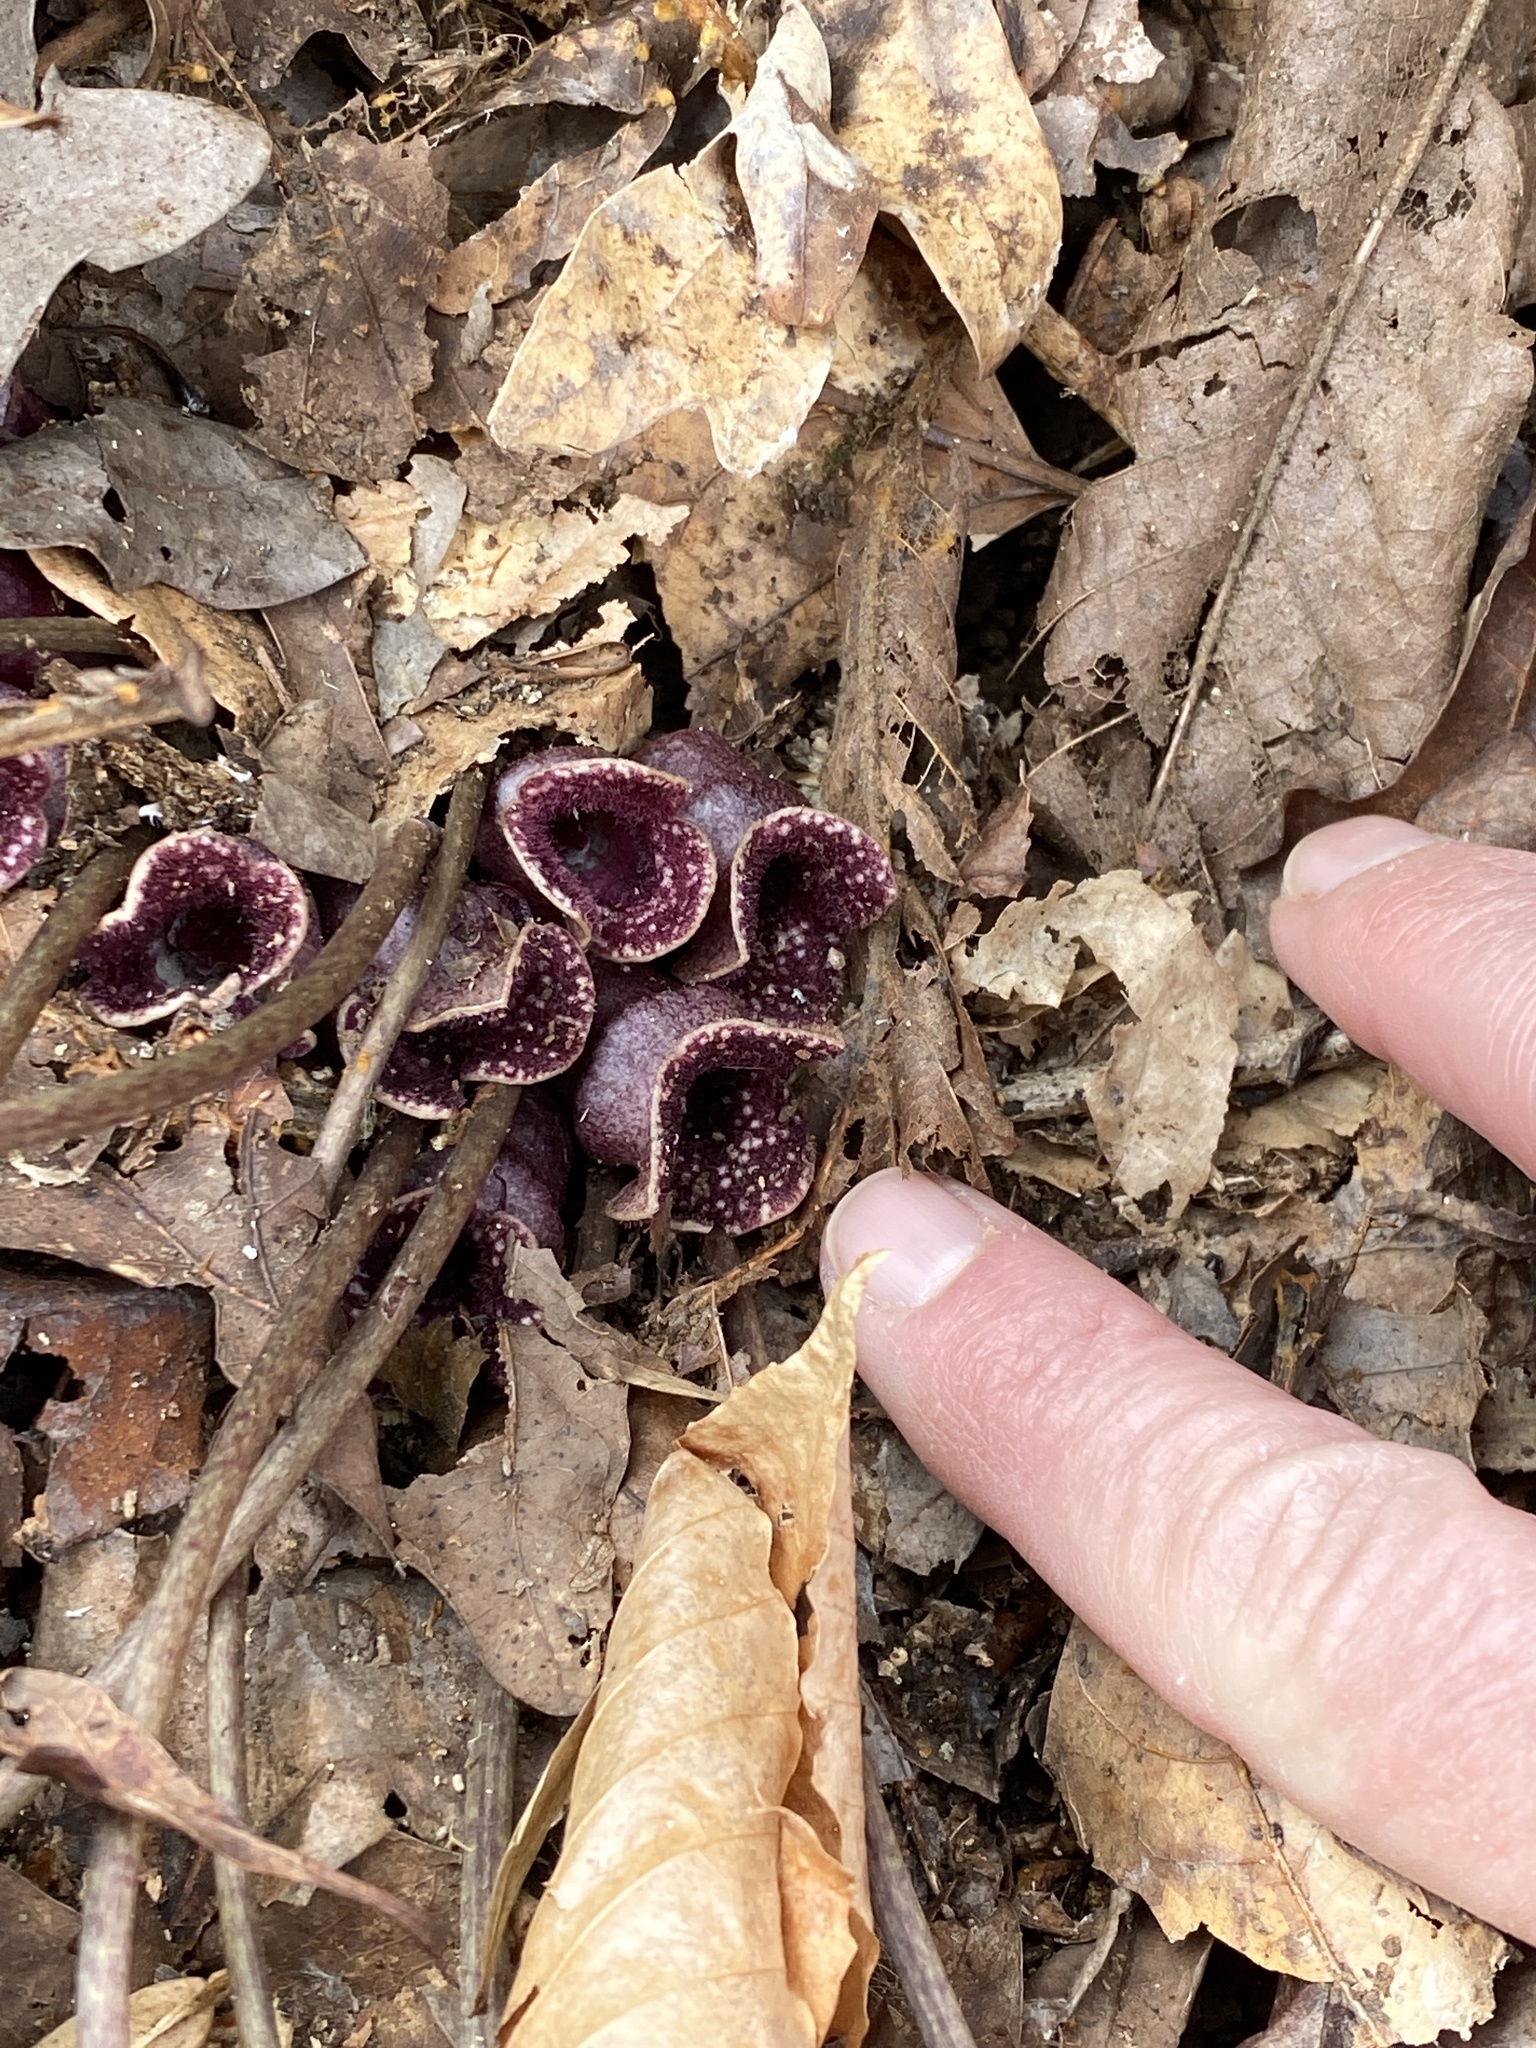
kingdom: Plantae
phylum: Tracheophyta
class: Magnoliopsida
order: Piperales
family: Aristolochiaceae
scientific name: Aristolochiaceae
